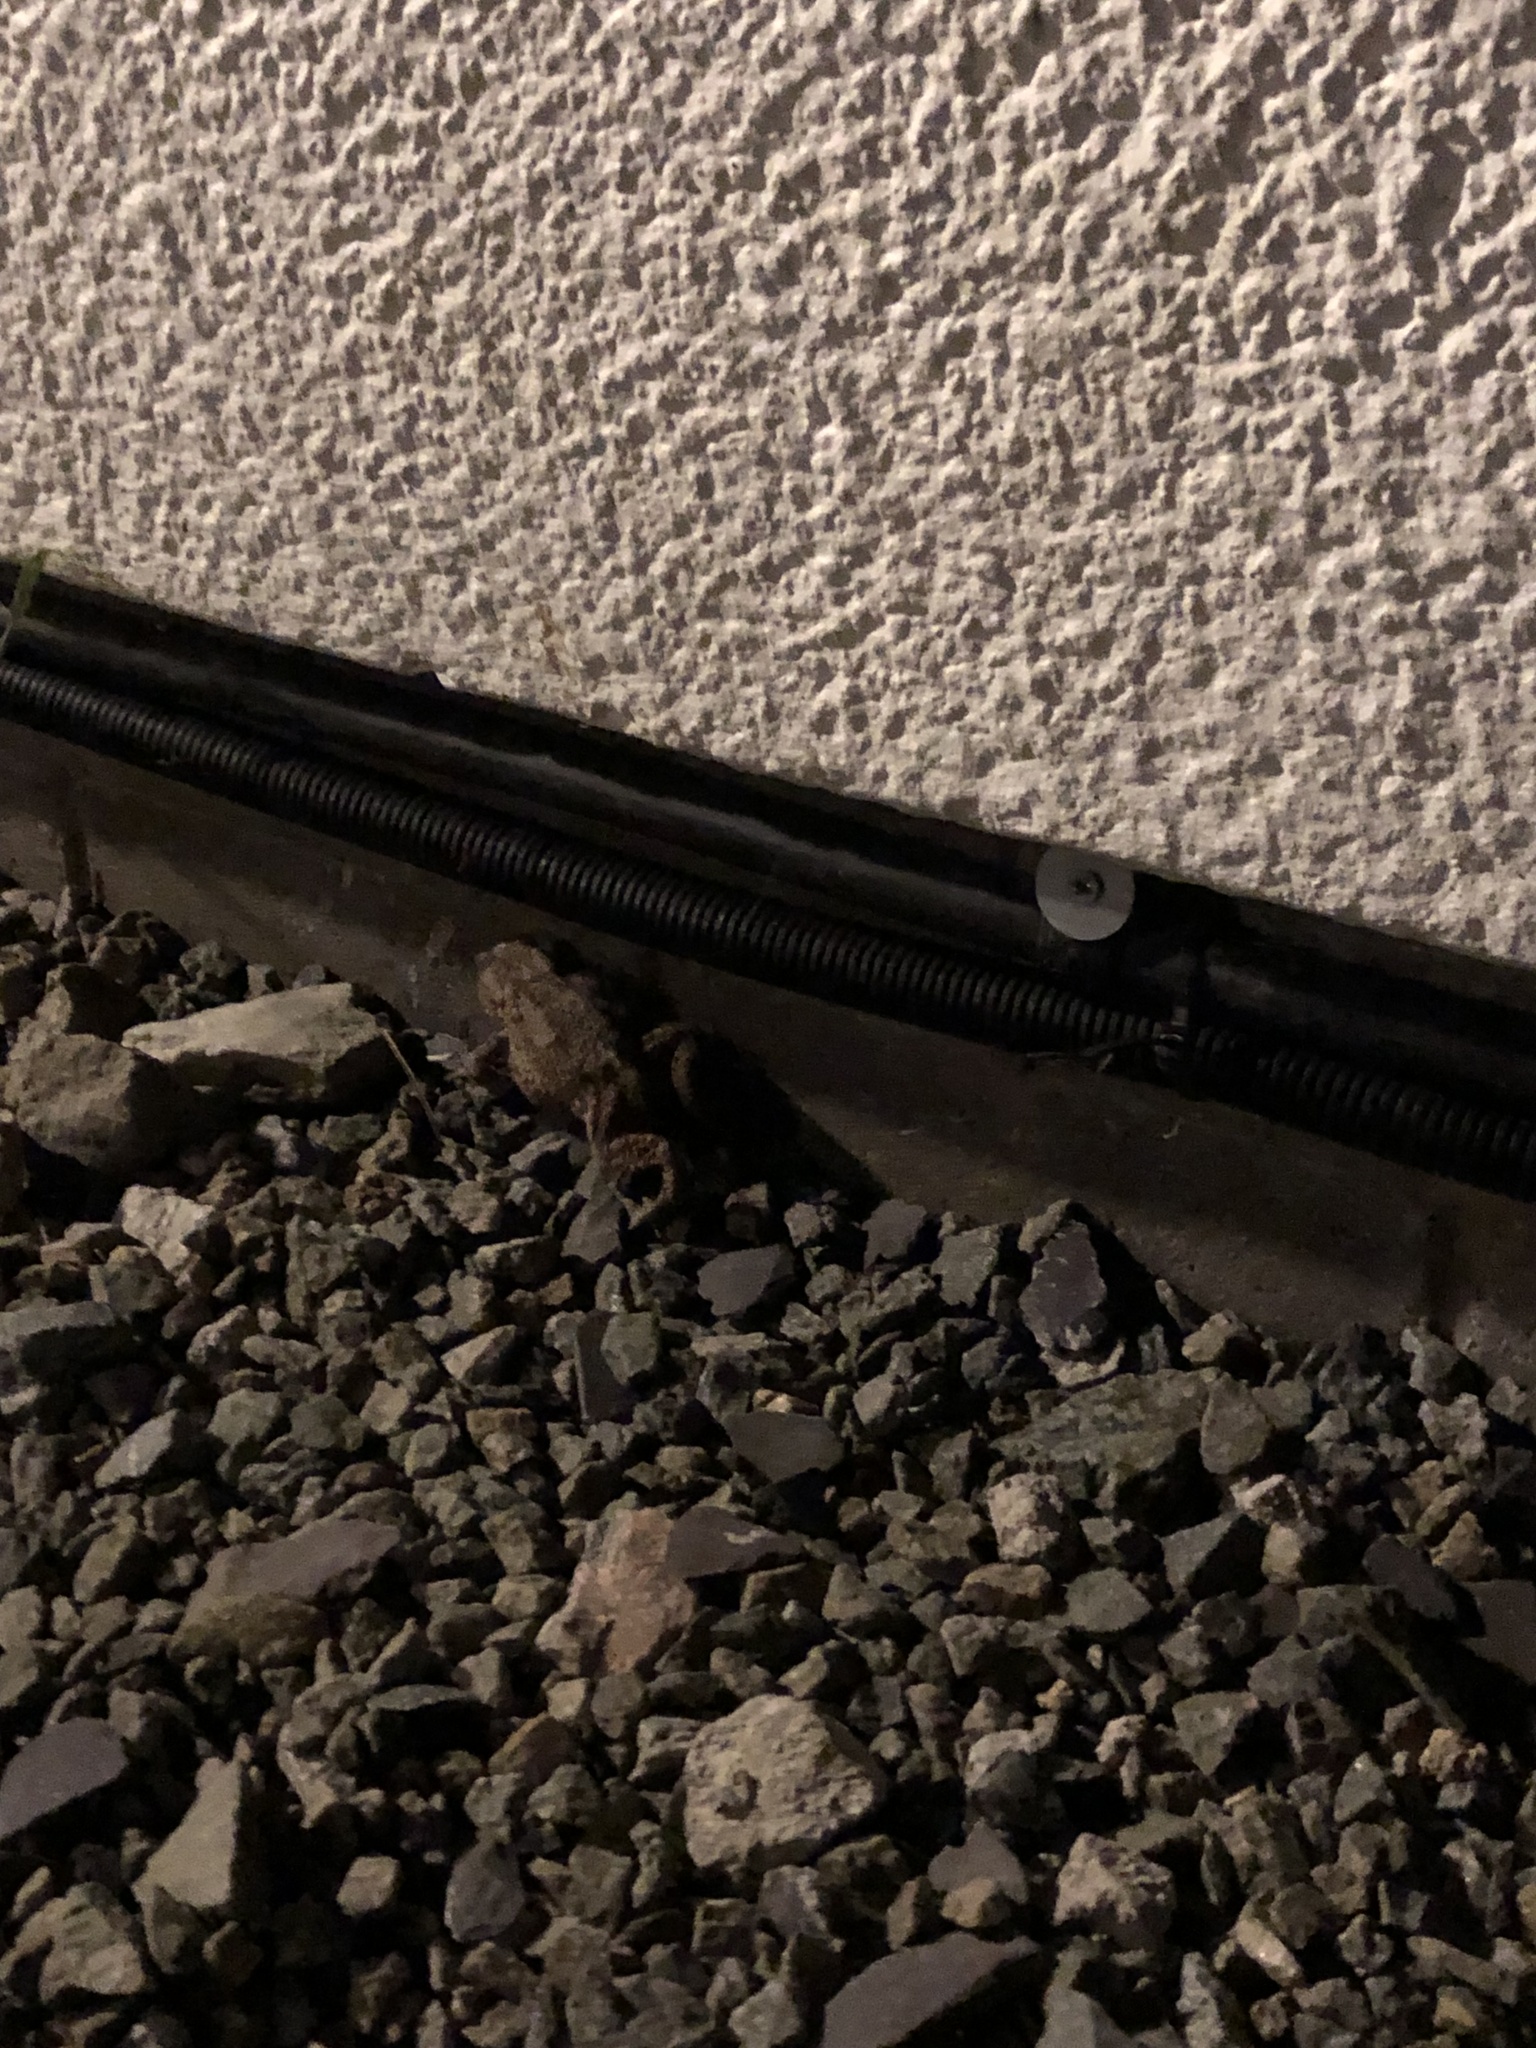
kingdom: Animalia
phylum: Chordata
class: Amphibia
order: Anura
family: Bufonidae
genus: Bufo
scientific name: Bufo bufo
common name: Common toad
